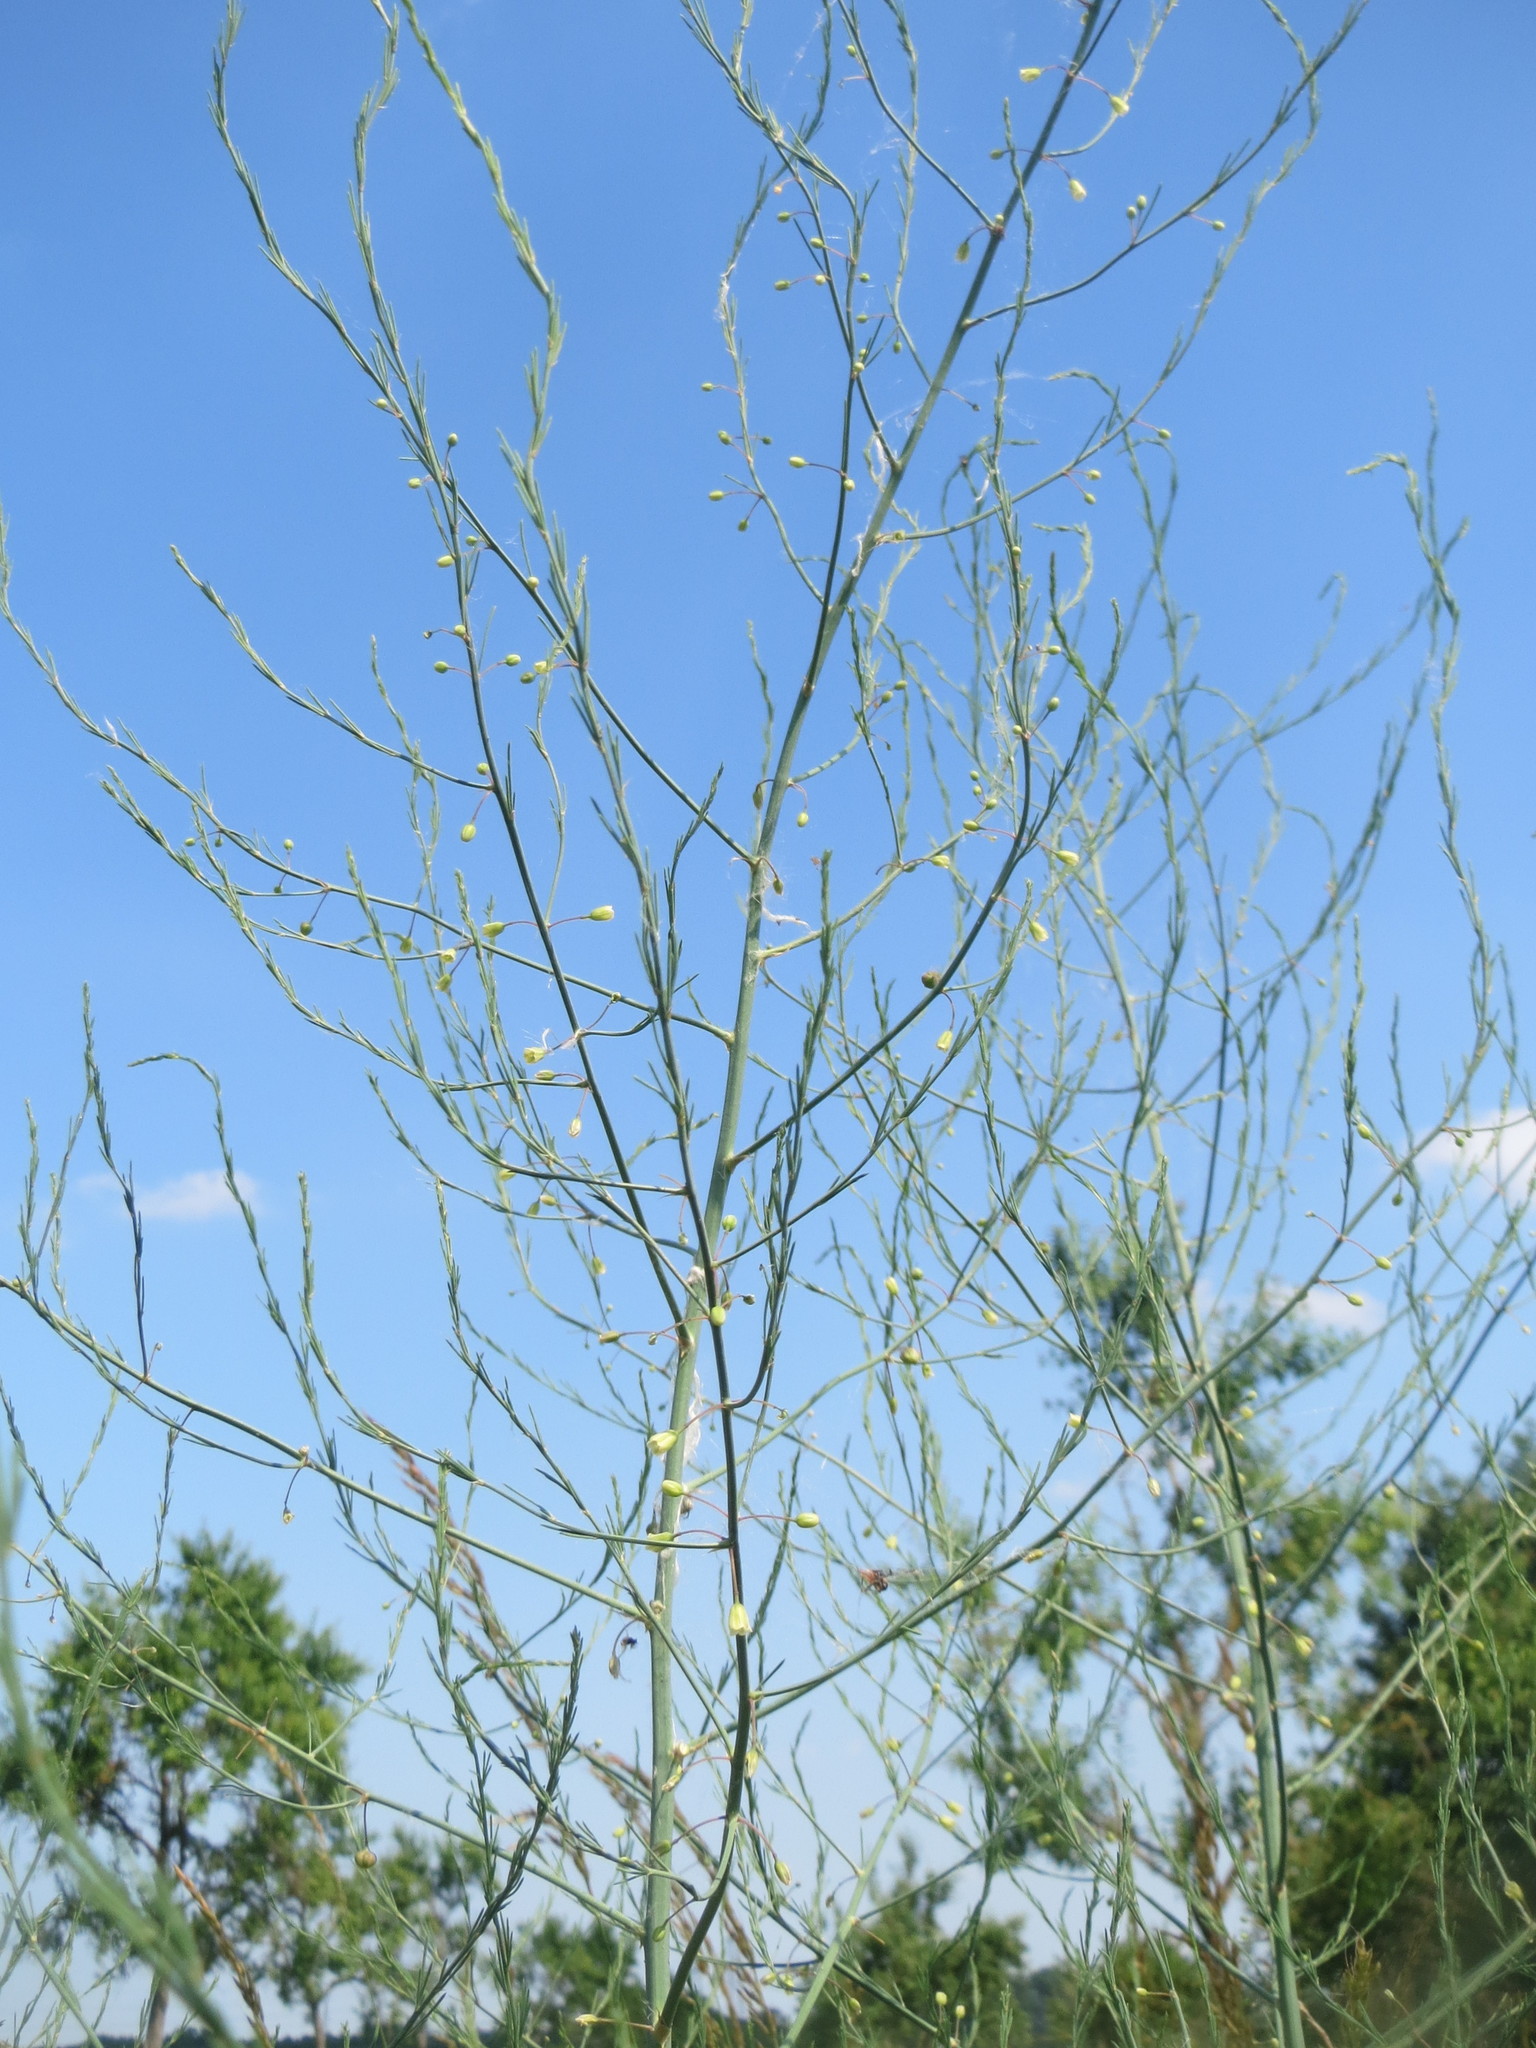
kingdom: Plantae
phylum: Tracheophyta
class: Liliopsida
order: Asparagales
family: Asparagaceae
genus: Asparagus
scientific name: Asparagus officinalis
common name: Garden asparagus
